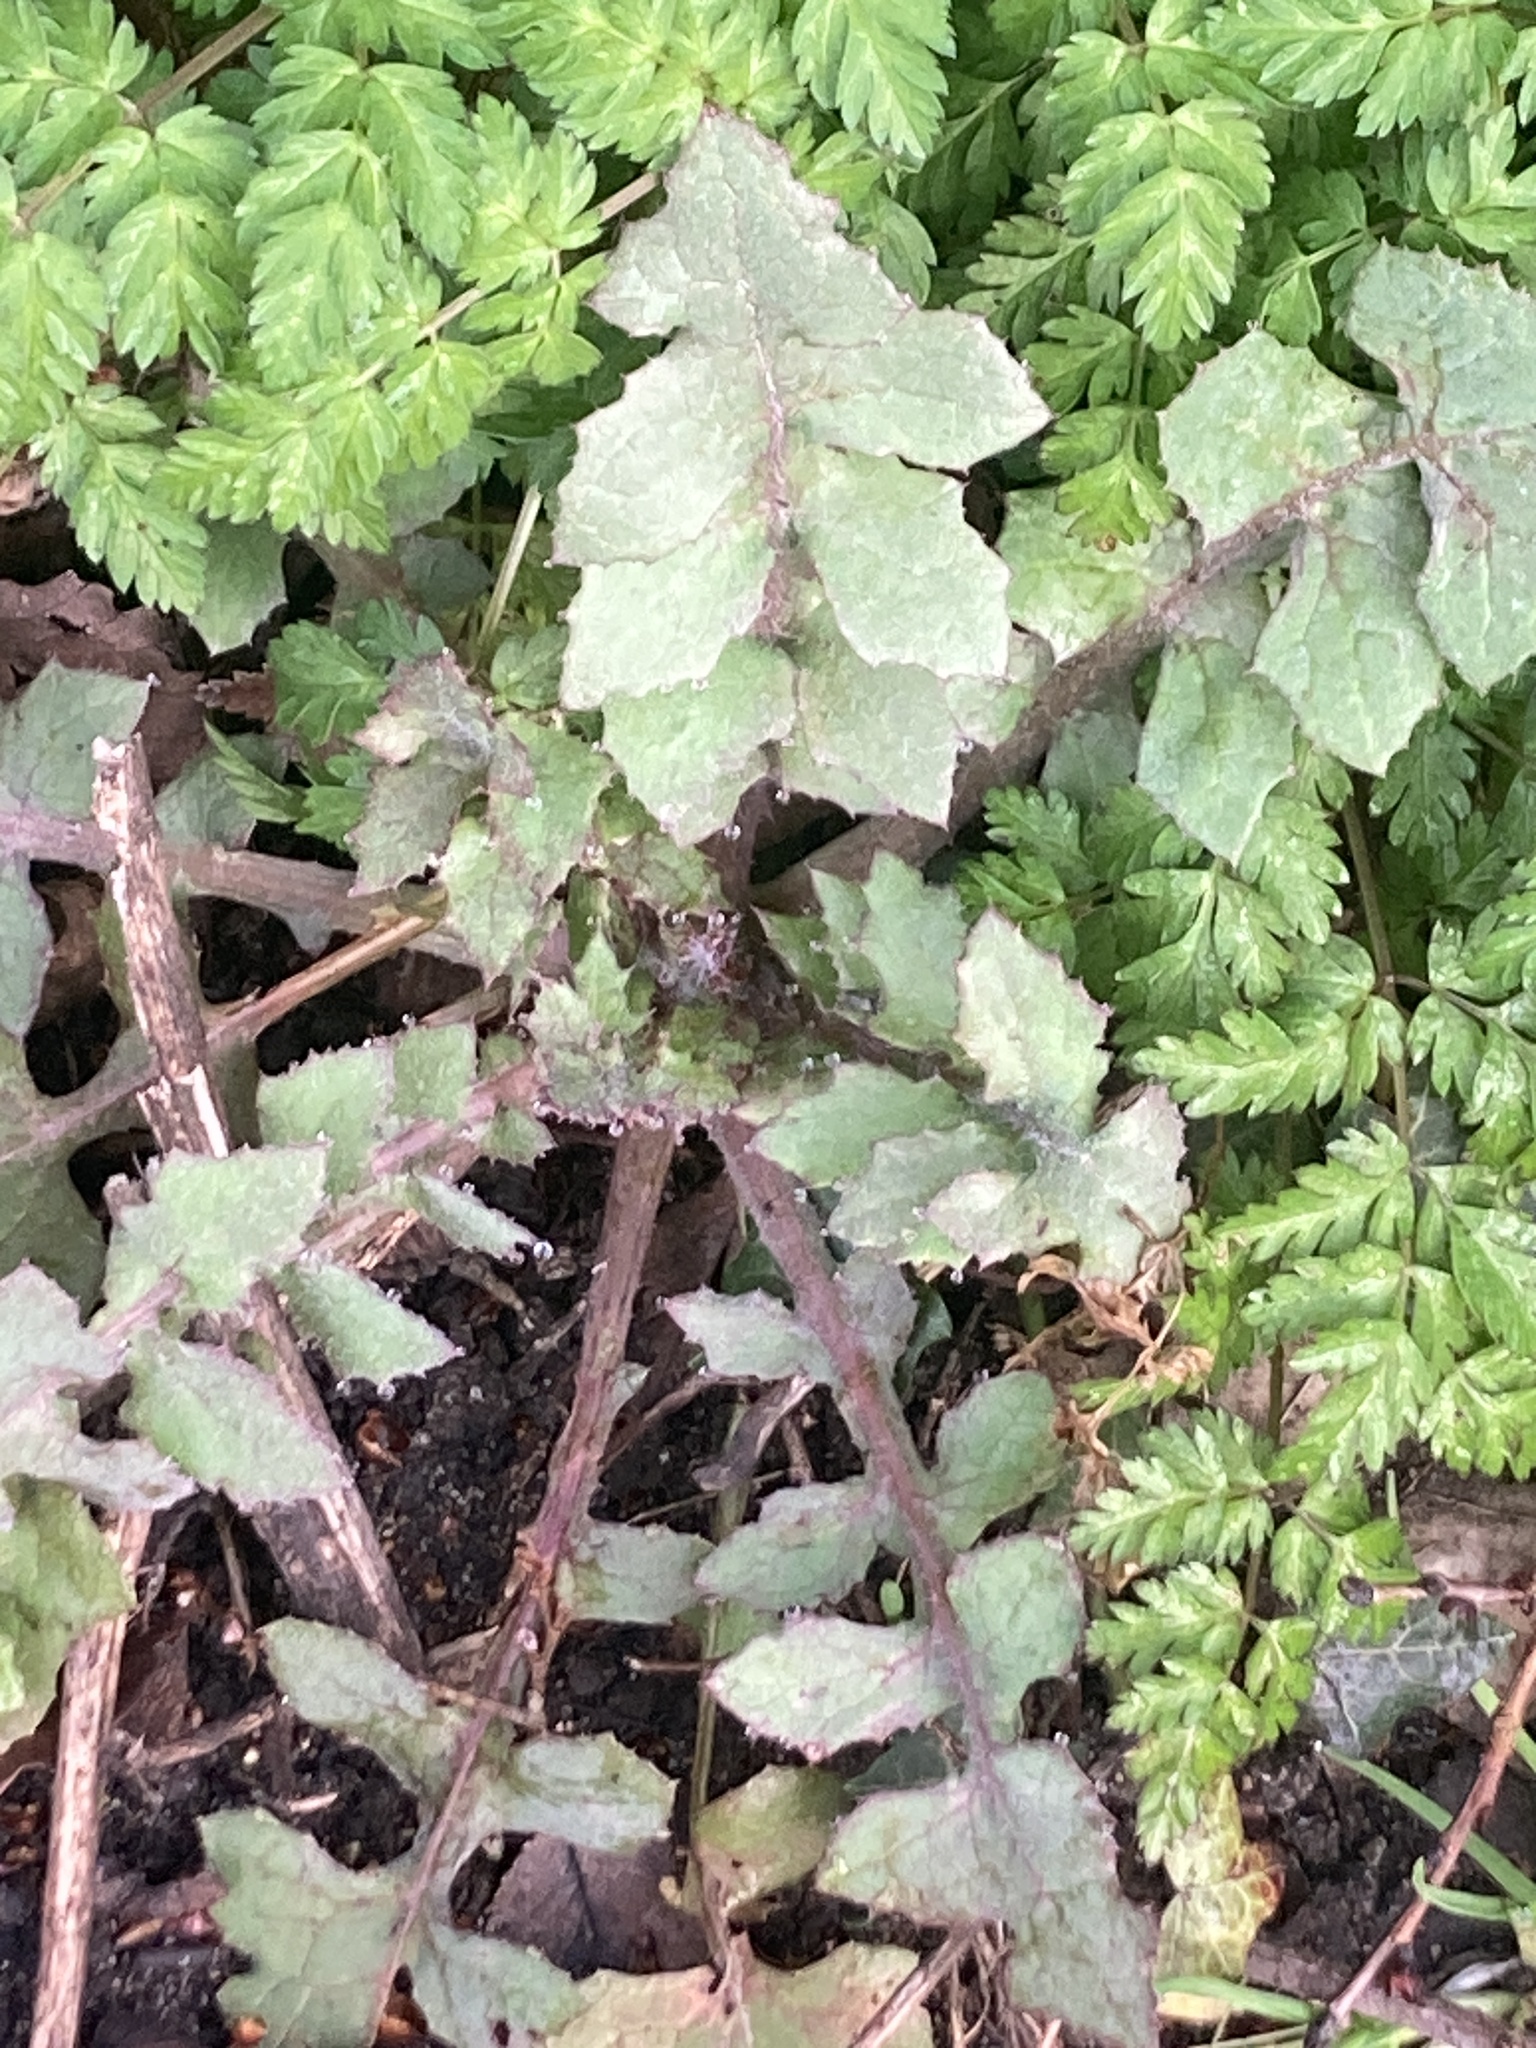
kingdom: Plantae
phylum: Tracheophyta
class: Magnoliopsida
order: Asterales
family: Asteraceae
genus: Sonchus
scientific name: Sonchus oleraceus
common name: Common sowthistle
